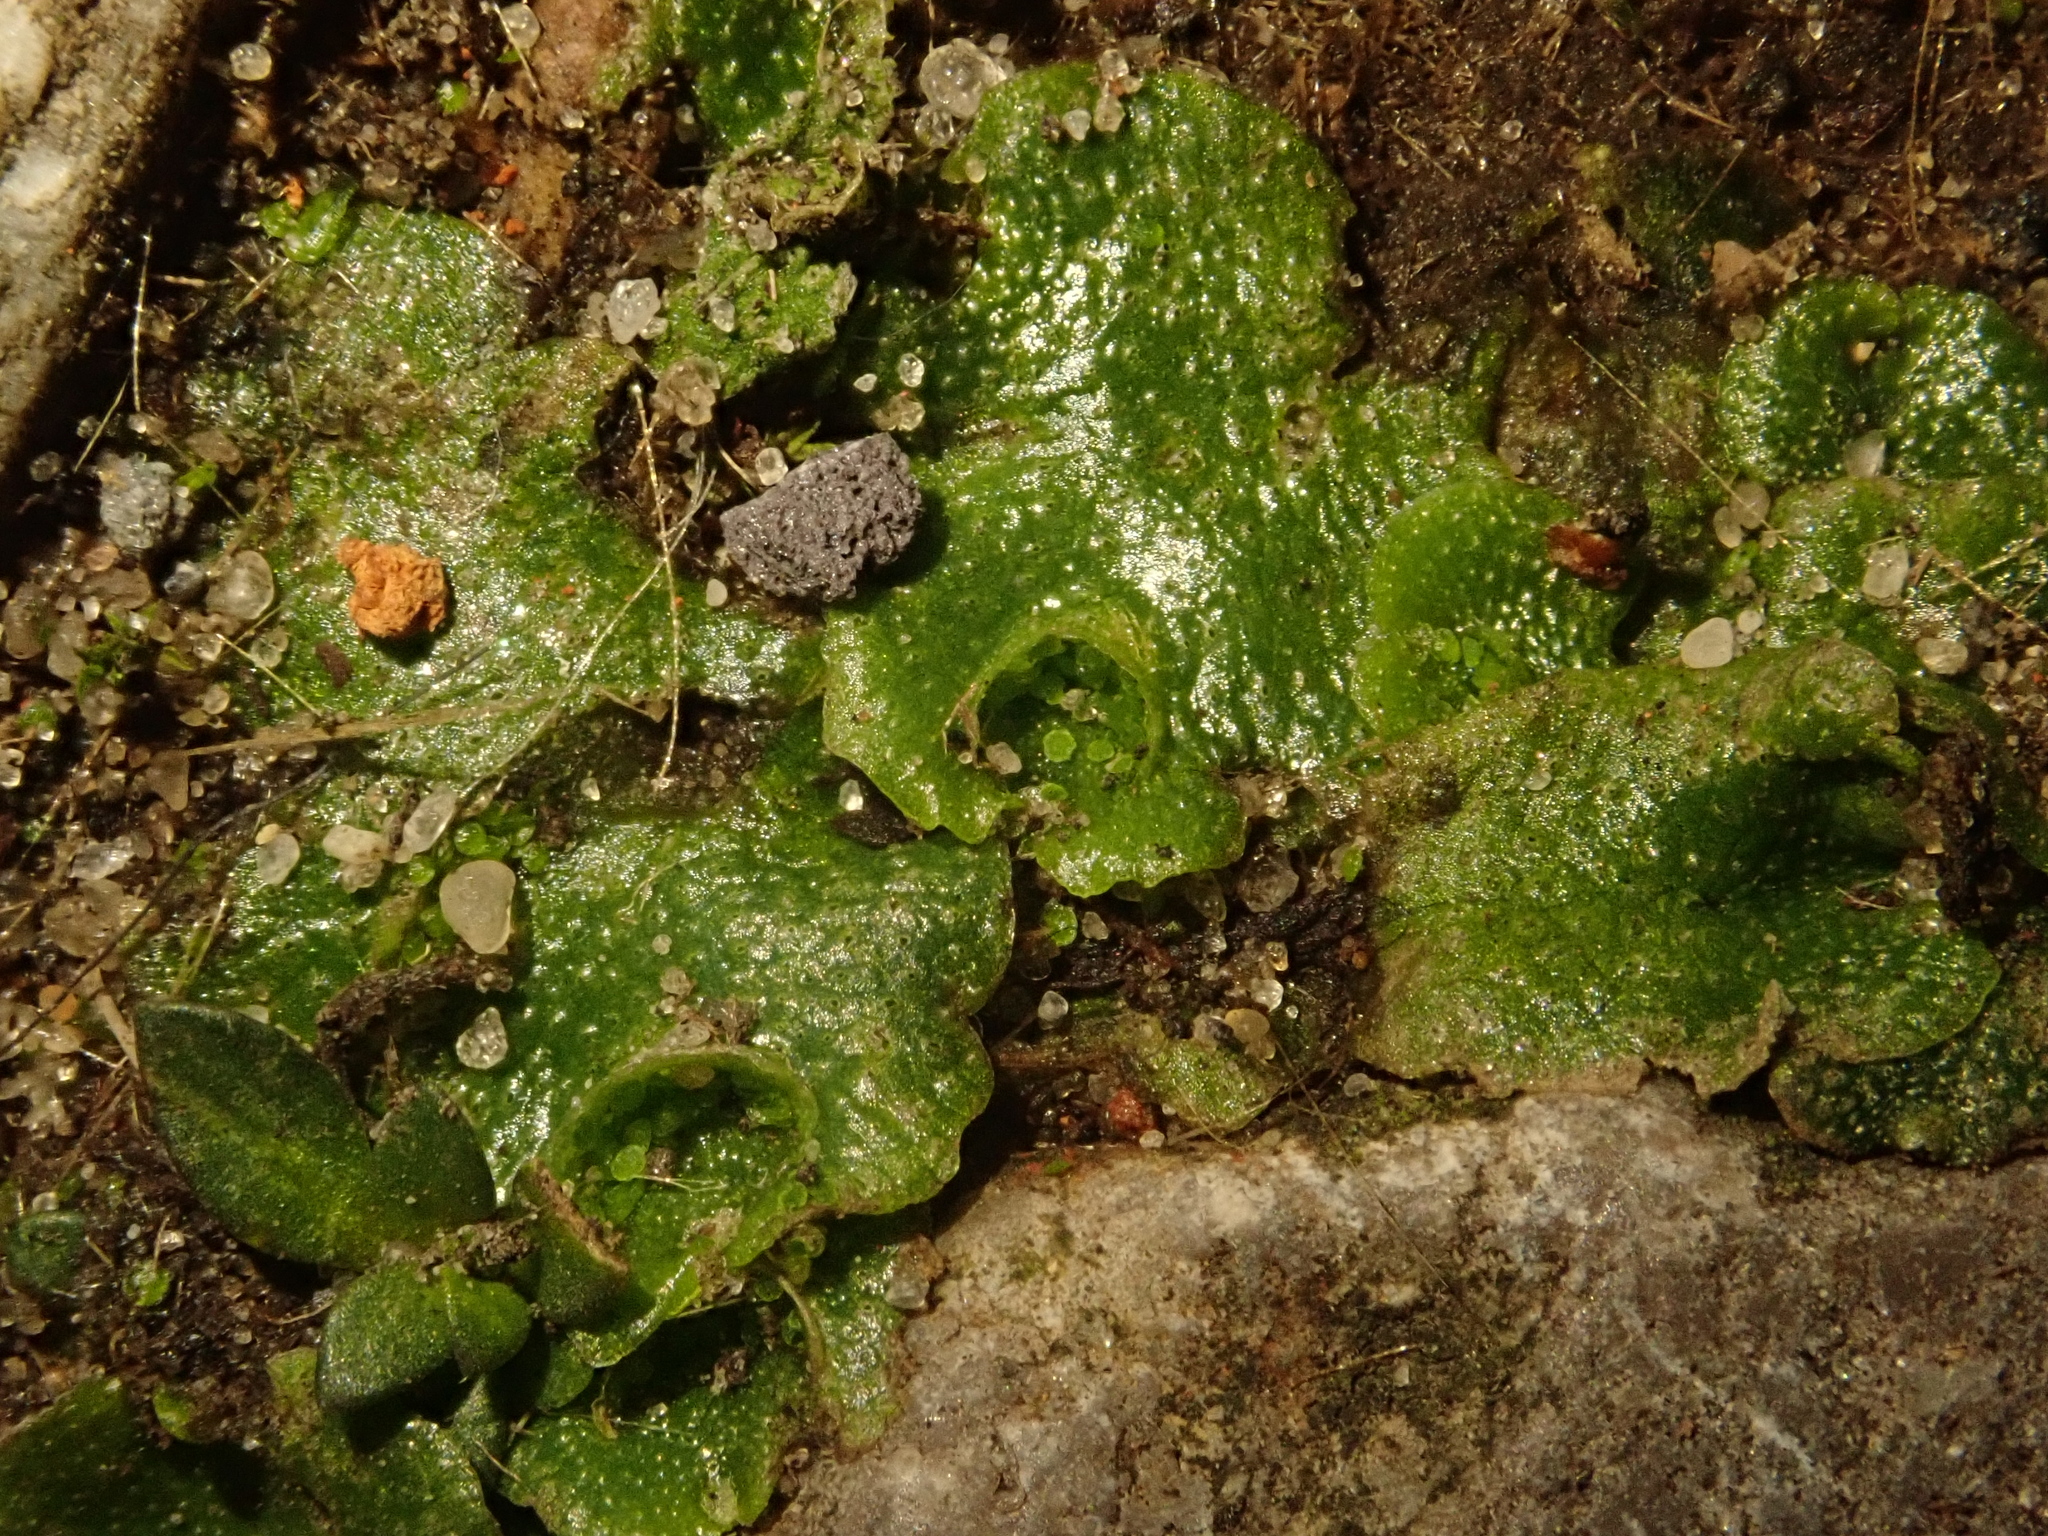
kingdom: Plantae
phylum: Marchantiophyta
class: Marchantiopsida
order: Lunulariales
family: Lunulariaceae
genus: Lunularia
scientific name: Lunularia cruciata
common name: Crescent-cup liverwort
